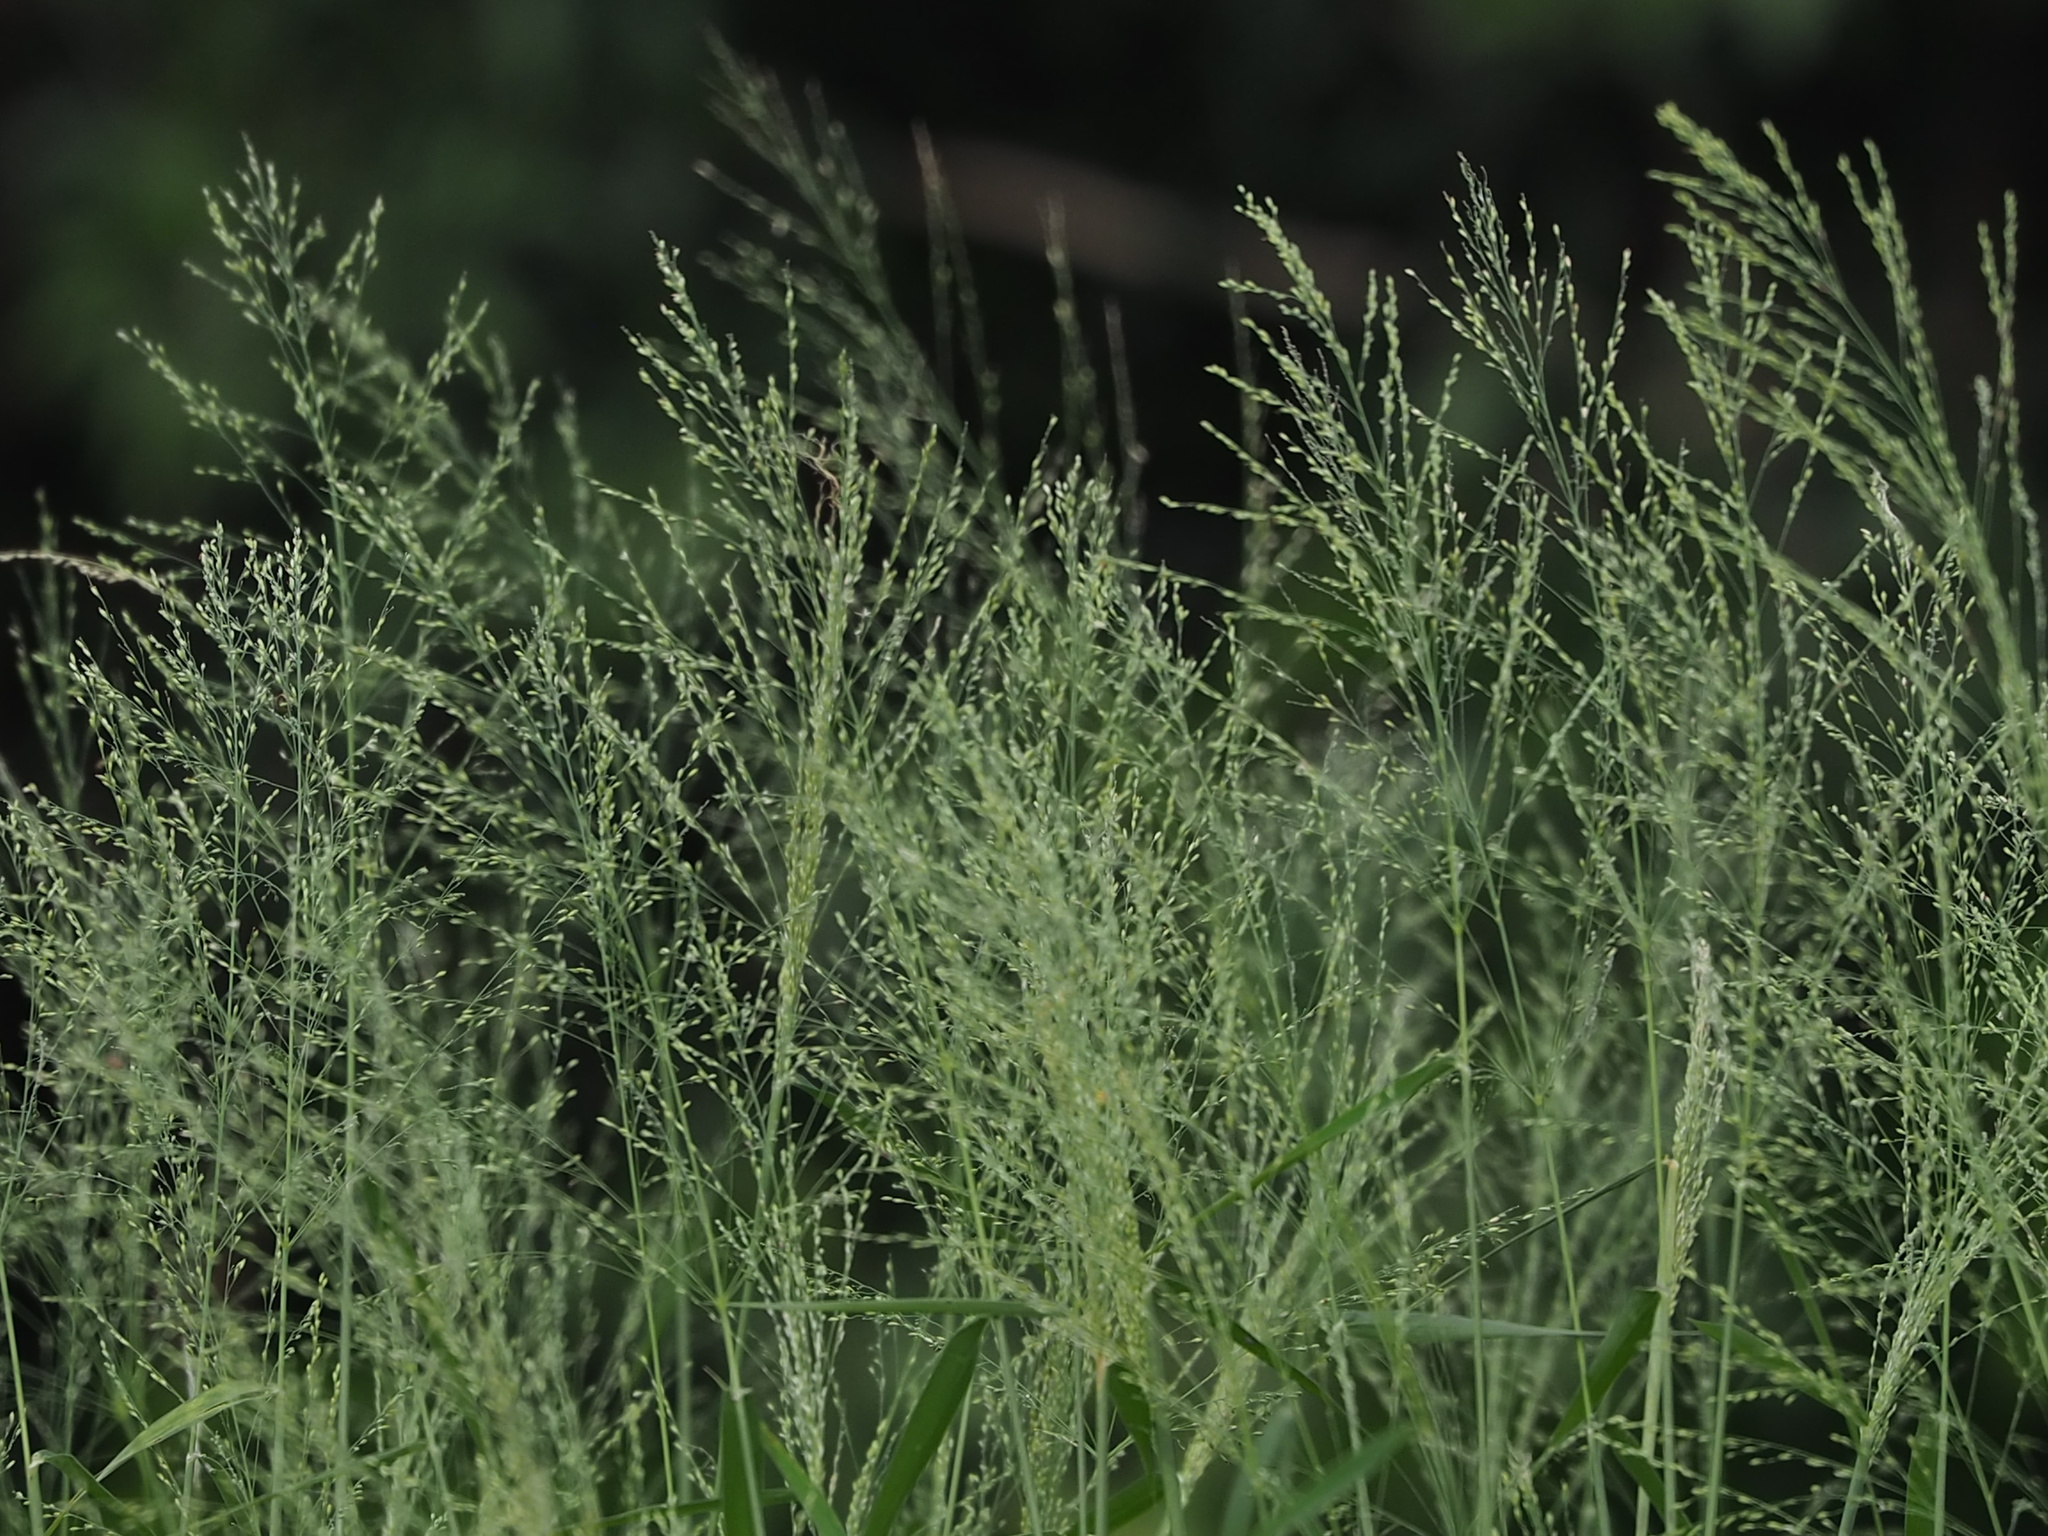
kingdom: Plantae
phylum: Tracheophyta
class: Liliopsida
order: Poales
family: Poaceae
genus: Megathyrsus
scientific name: Megathyrsus maximus
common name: Guineagrass
